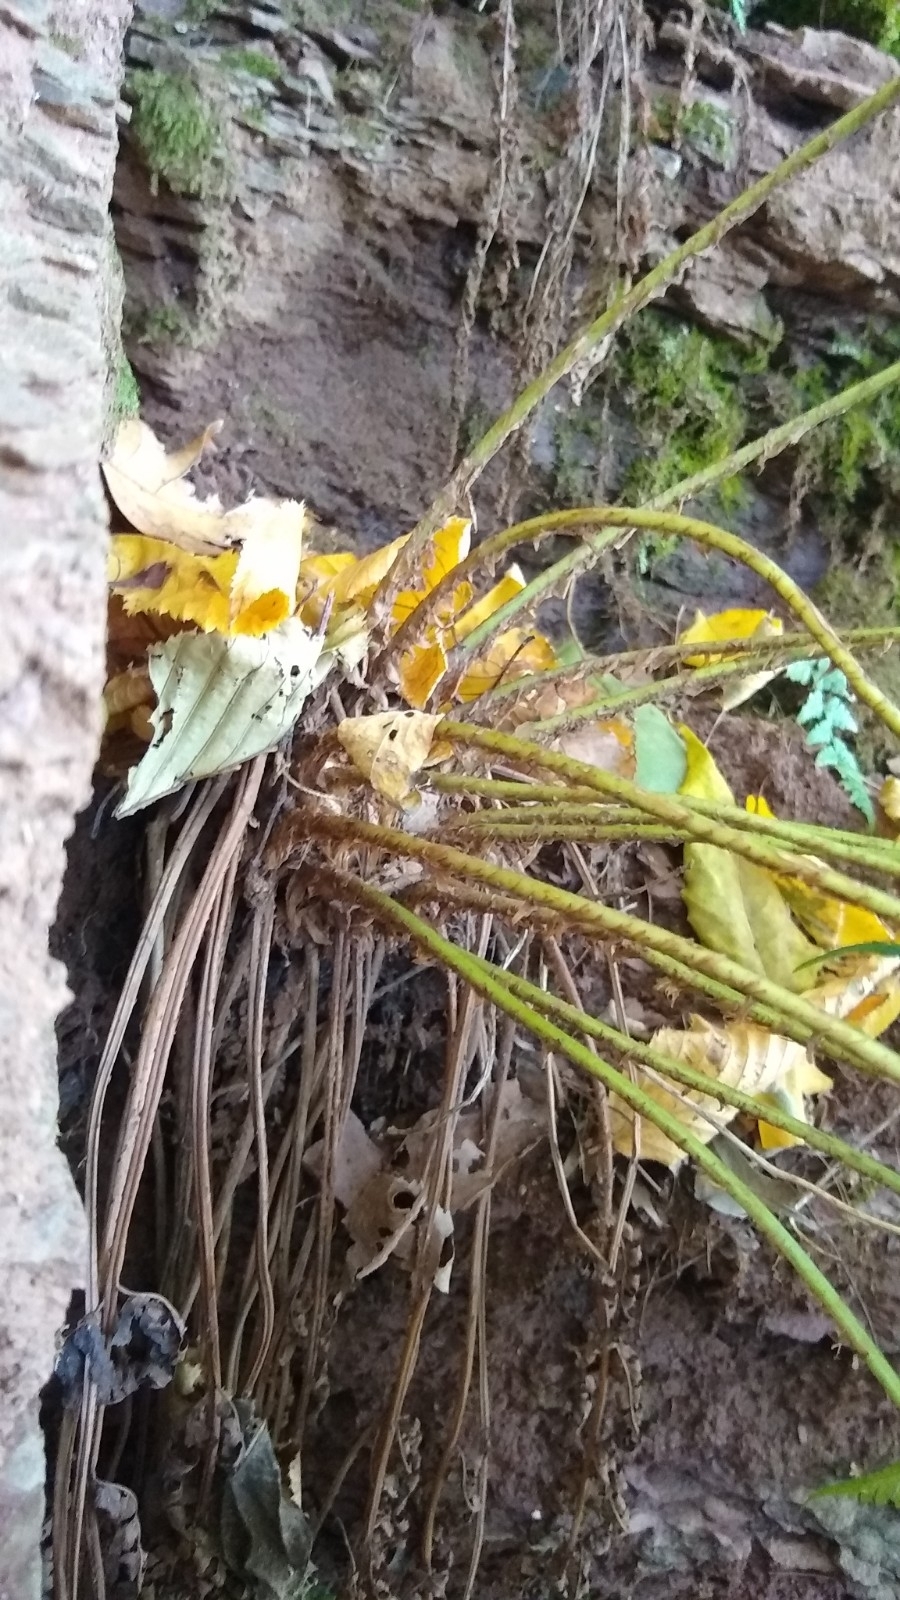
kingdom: Plantae
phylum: Tracheophyta
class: Polypodiopsida
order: Polypodiales
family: Dryopteridaceae
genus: Dryopteris
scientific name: Dryopteris marginalis
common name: Marginal wood fern
